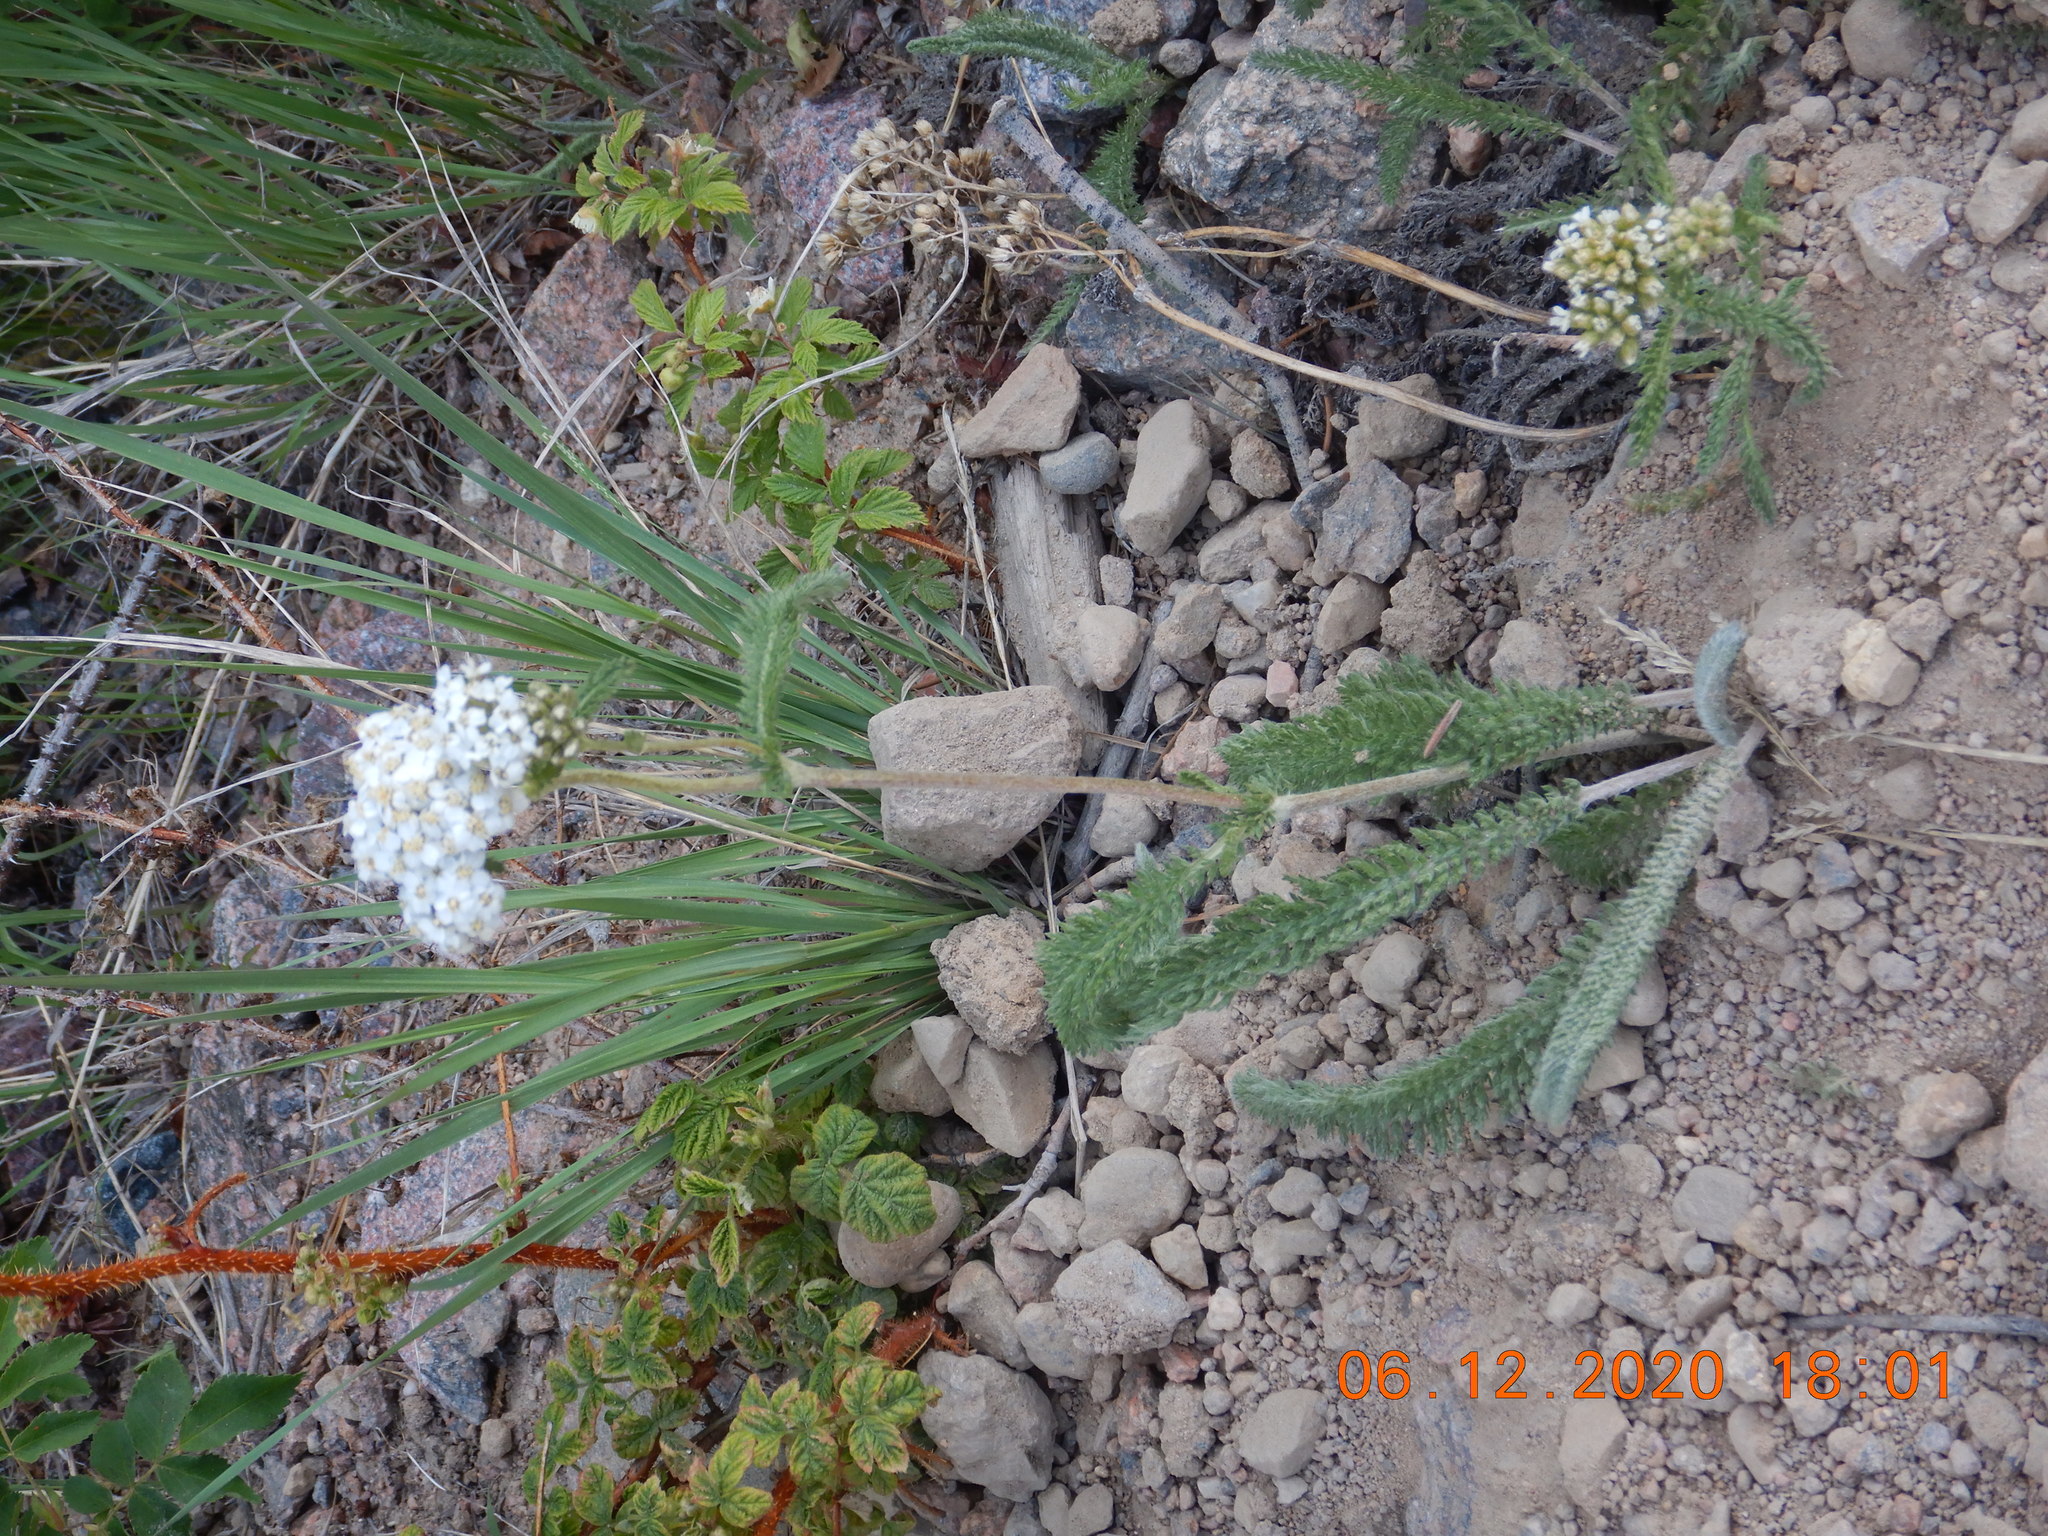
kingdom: Plantae
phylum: Tracheophyta
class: Magnoliopsida
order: Asterales
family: Asteraceae
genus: Achillea
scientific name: Achillea millefolium
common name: Yarrow
